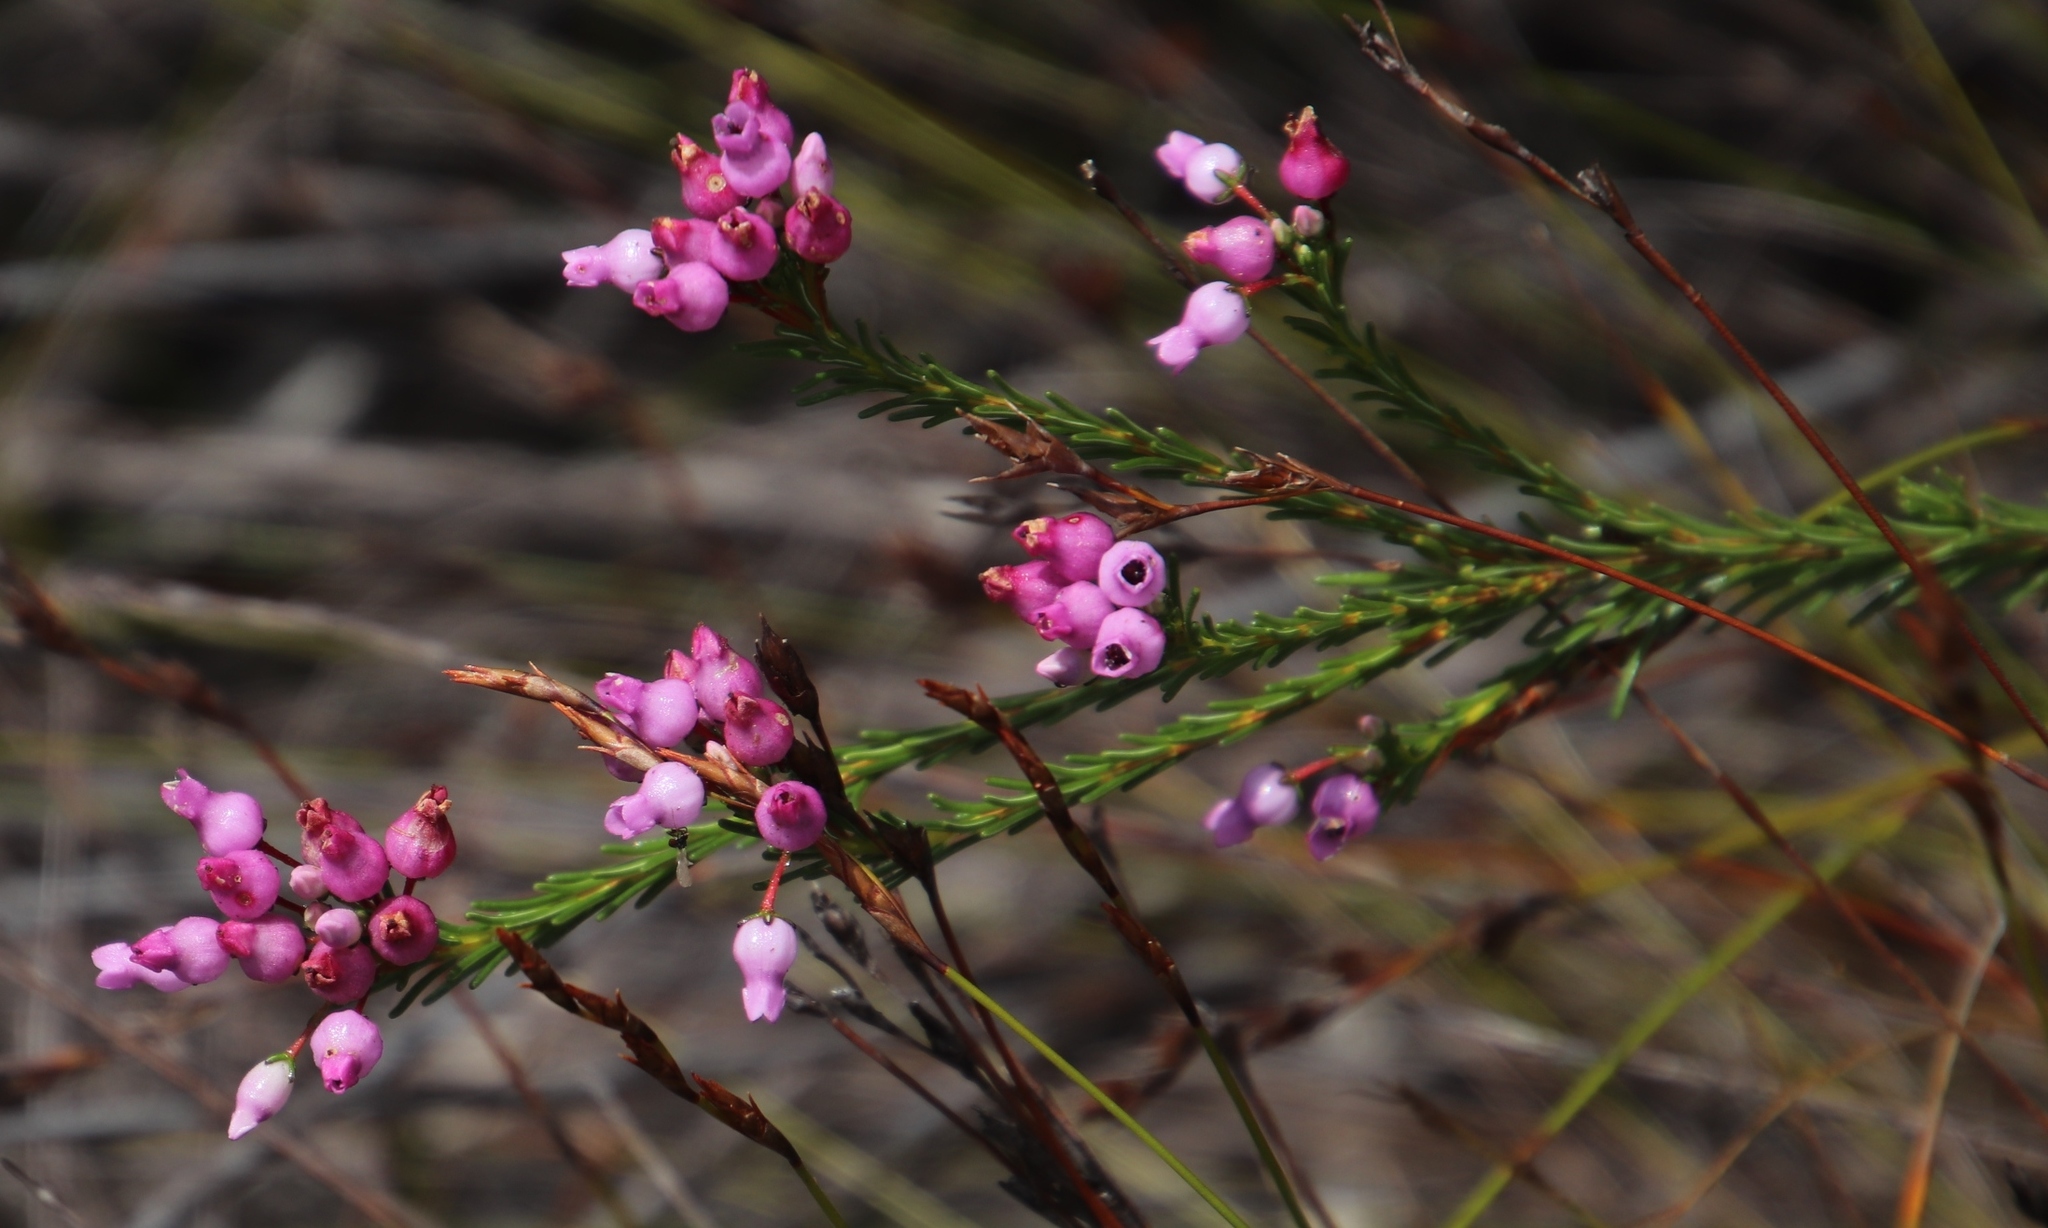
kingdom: Plantae
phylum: Tracheophyta
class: Magnoliopsida
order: Ericales
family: Ericaceae
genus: Erica
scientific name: Erica obliqua
